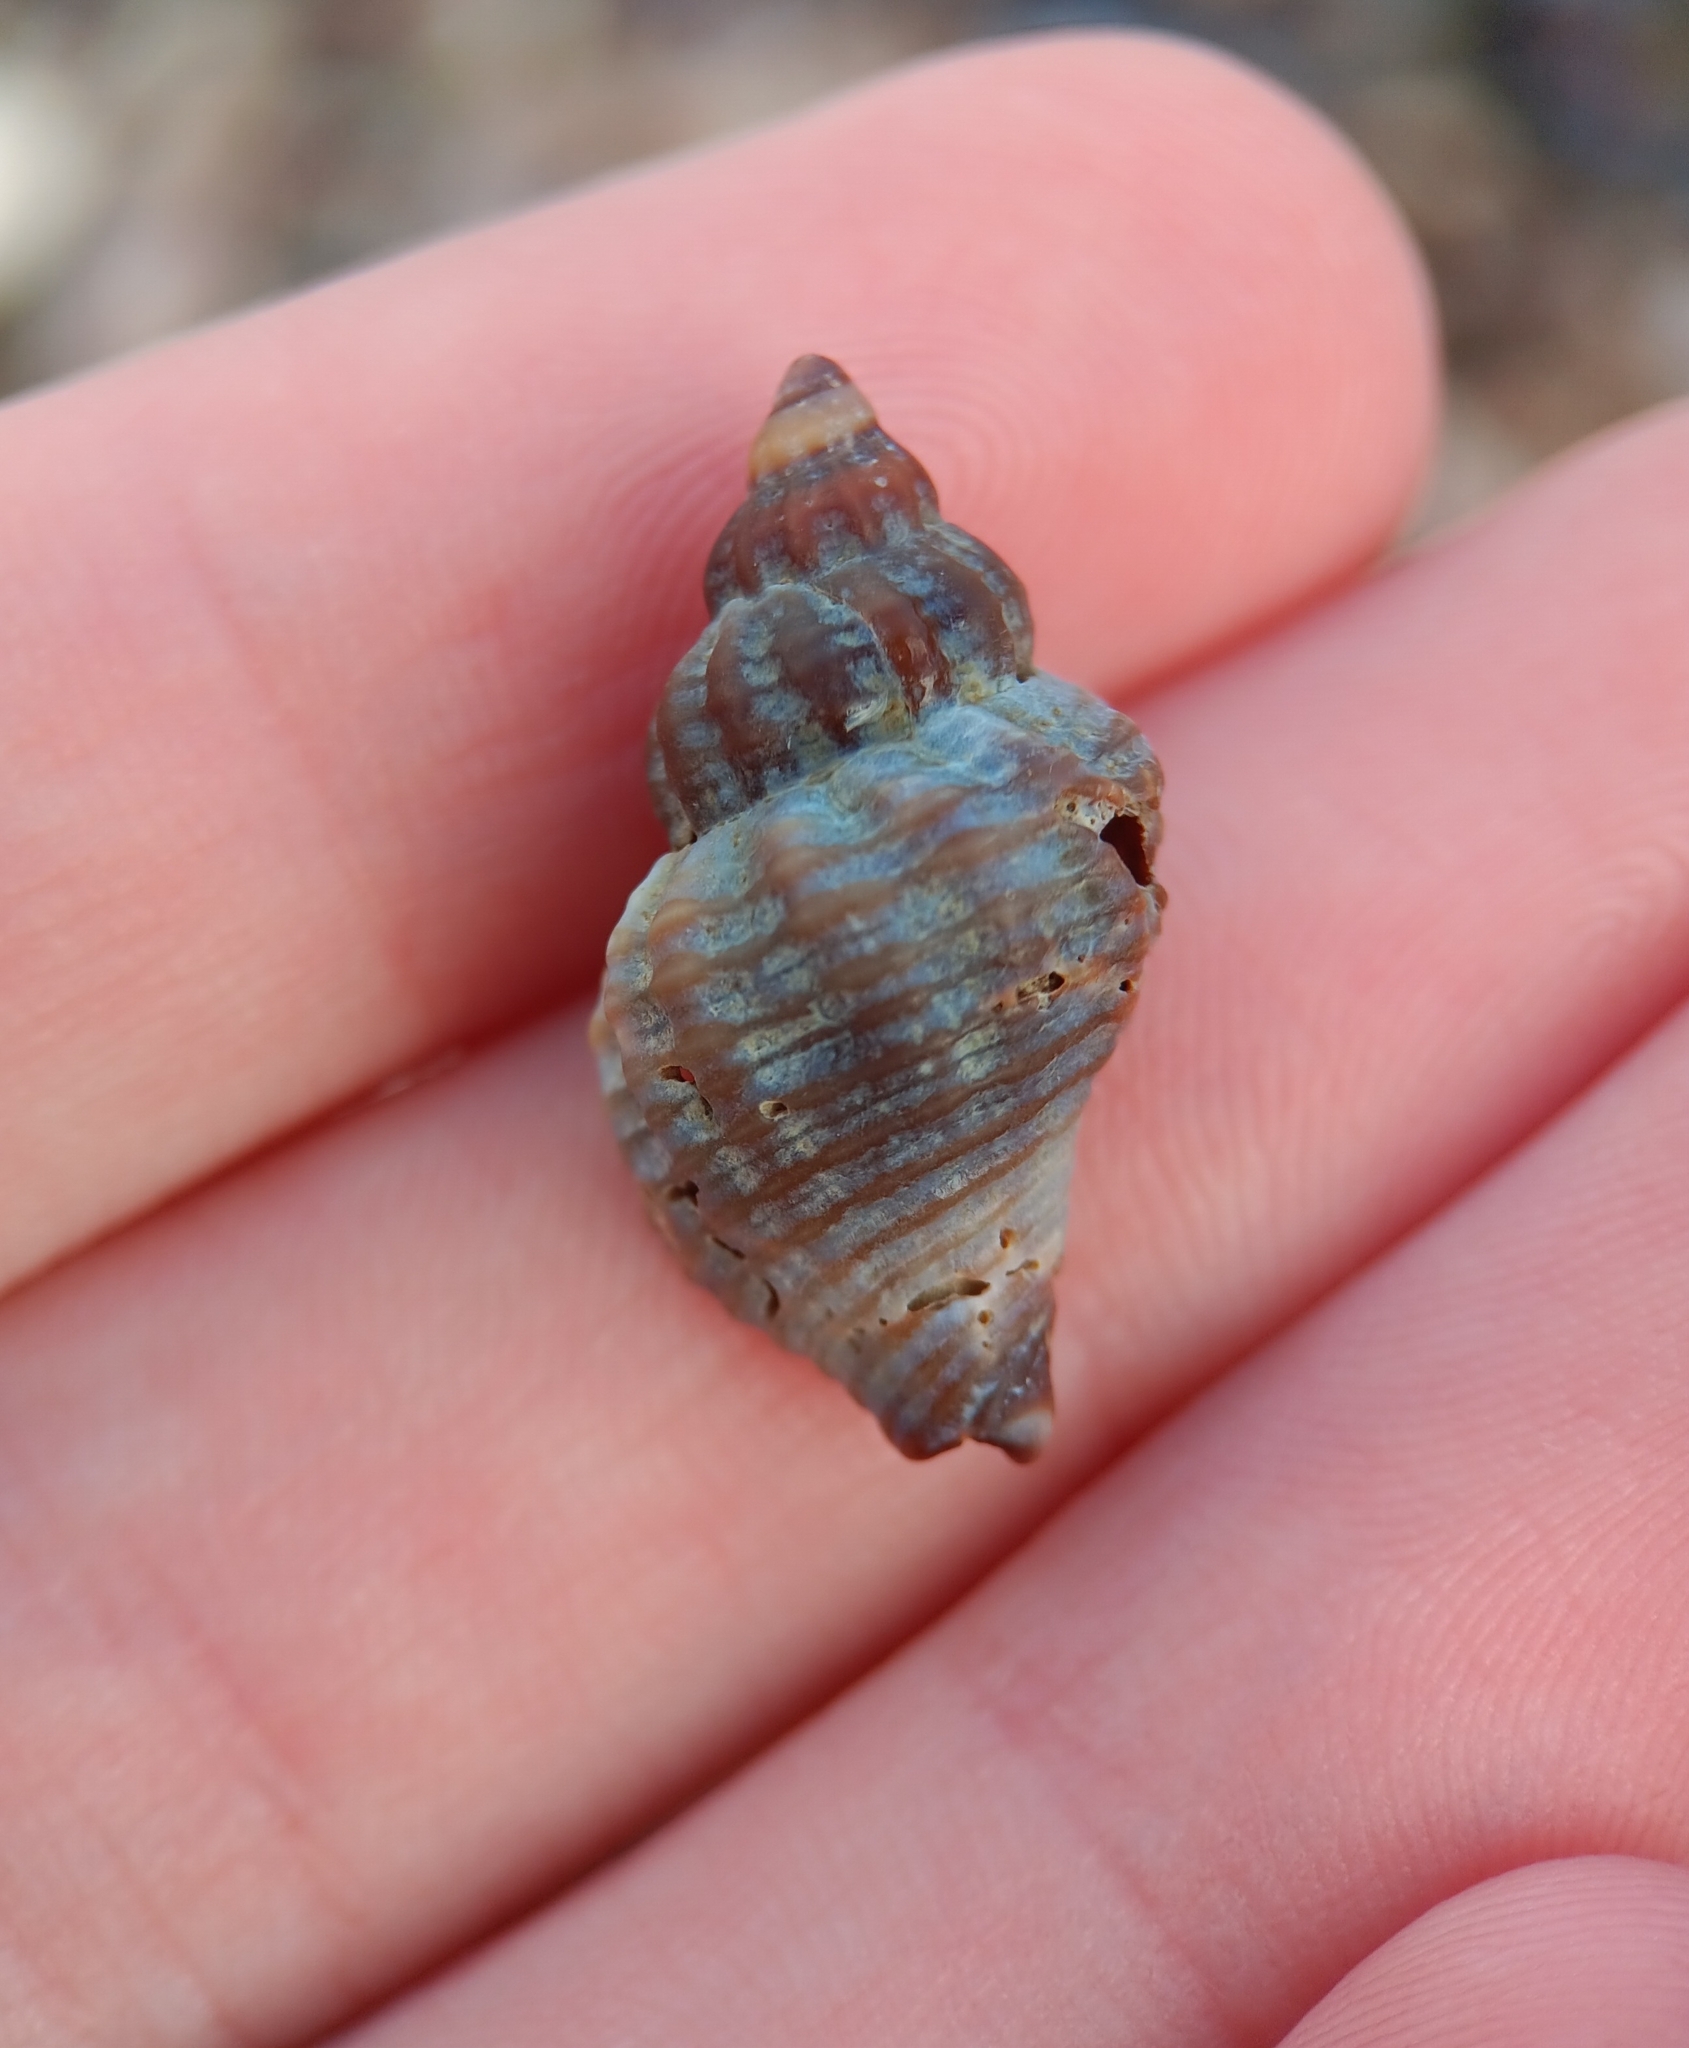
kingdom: Animalia
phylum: Mollusca
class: Gastropoda
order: Neogastropoda
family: Muricidae
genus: Urosalpinx
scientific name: Urosalpinx cinerea
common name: American sting winkle
